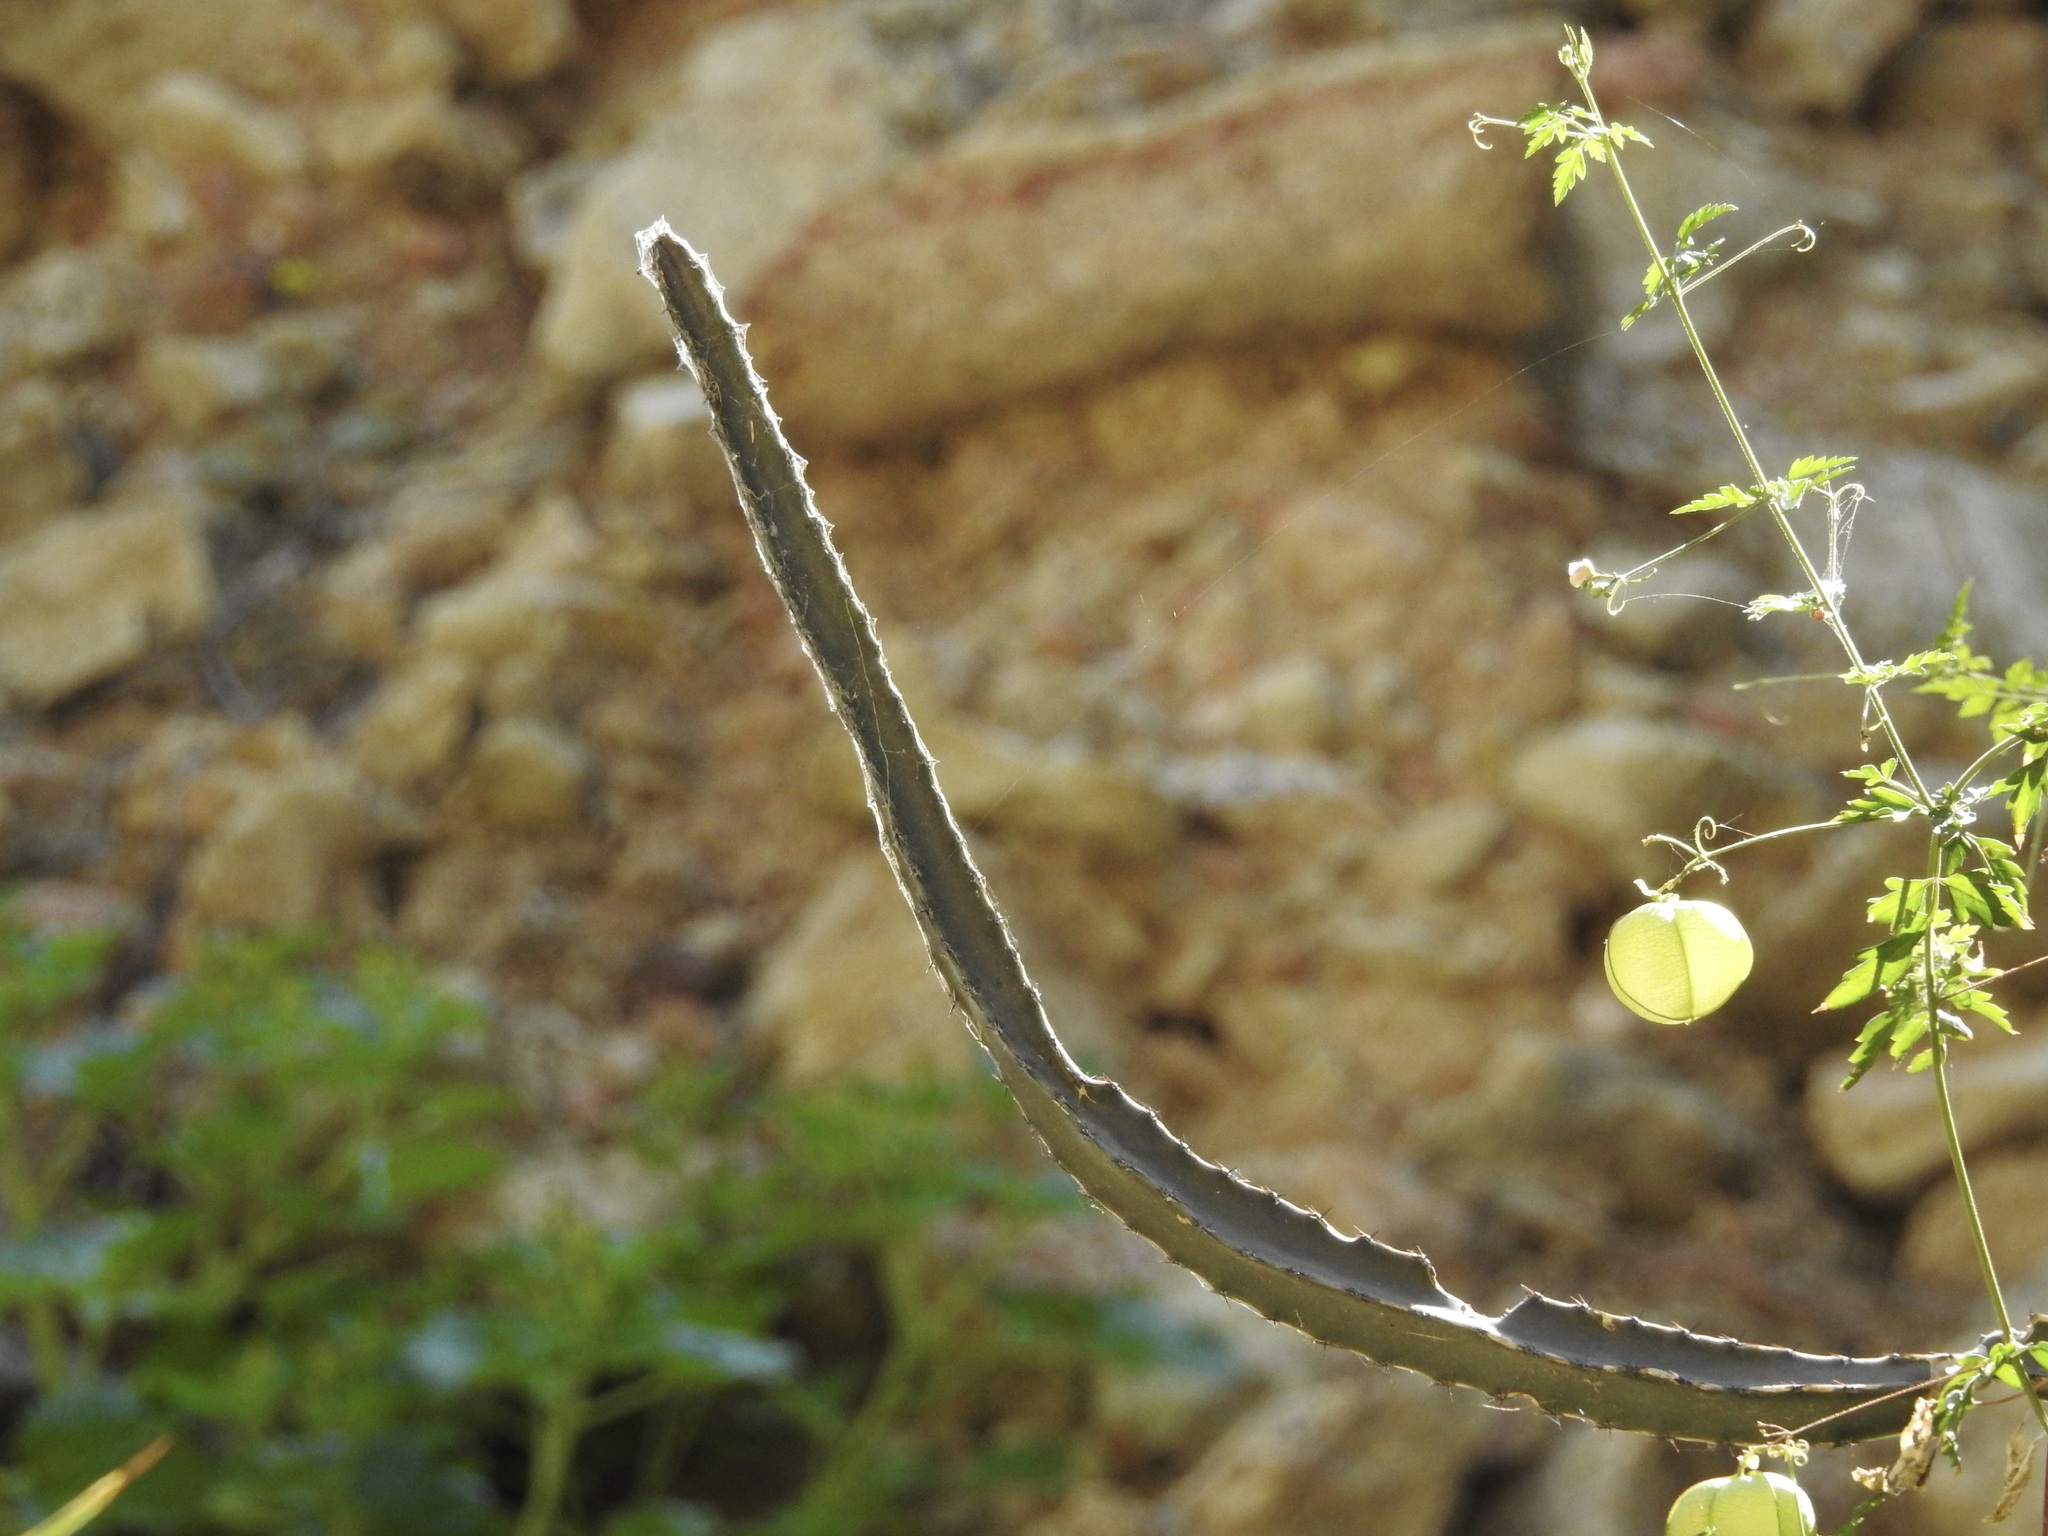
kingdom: Plantae
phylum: Tracheophyta
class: Magnoliopsida
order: Caryophyllales
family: Cactaceae
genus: Peniocereus
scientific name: Peniocereus marianus
